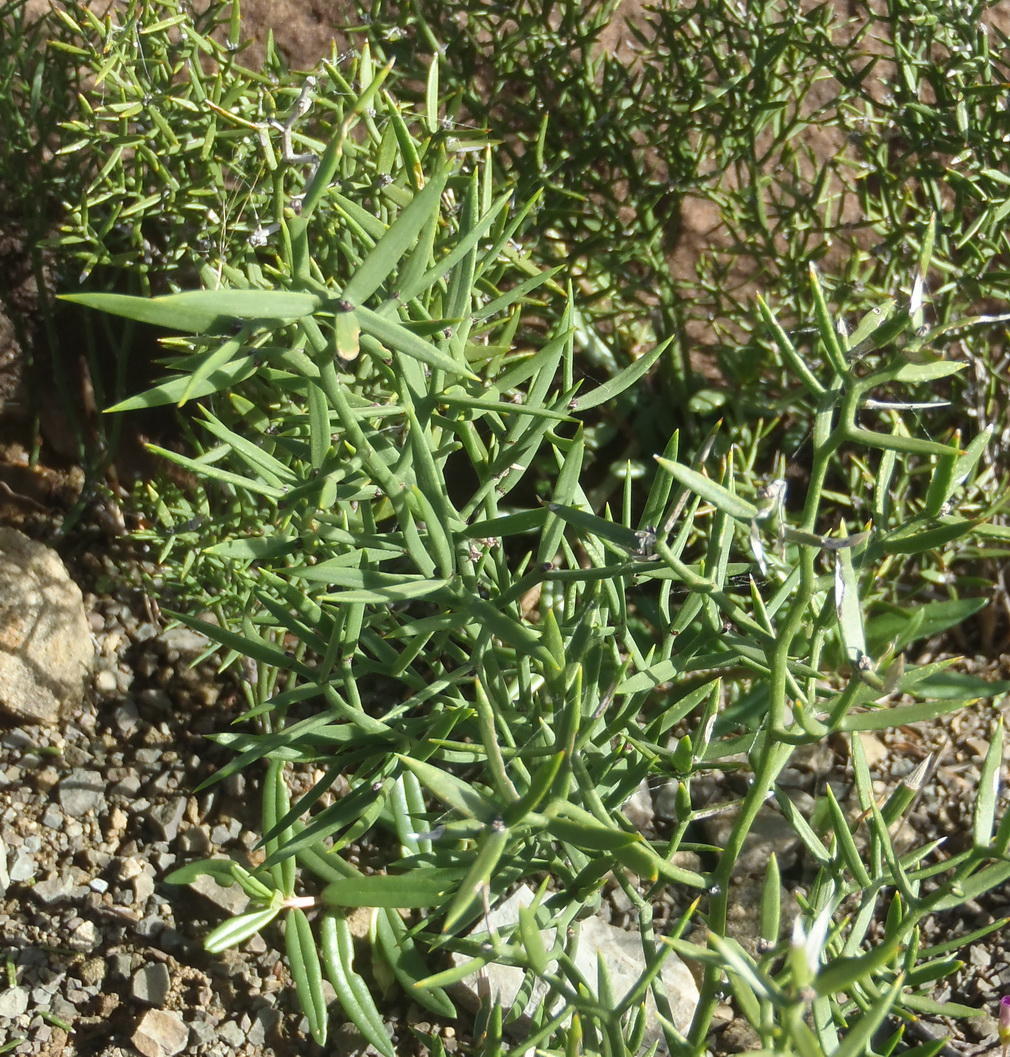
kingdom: Plantae
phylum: Tracheophyta
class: Liliopsida
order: Asparagales
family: Asparagaceae
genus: Asparagus
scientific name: Asparagus striatus
